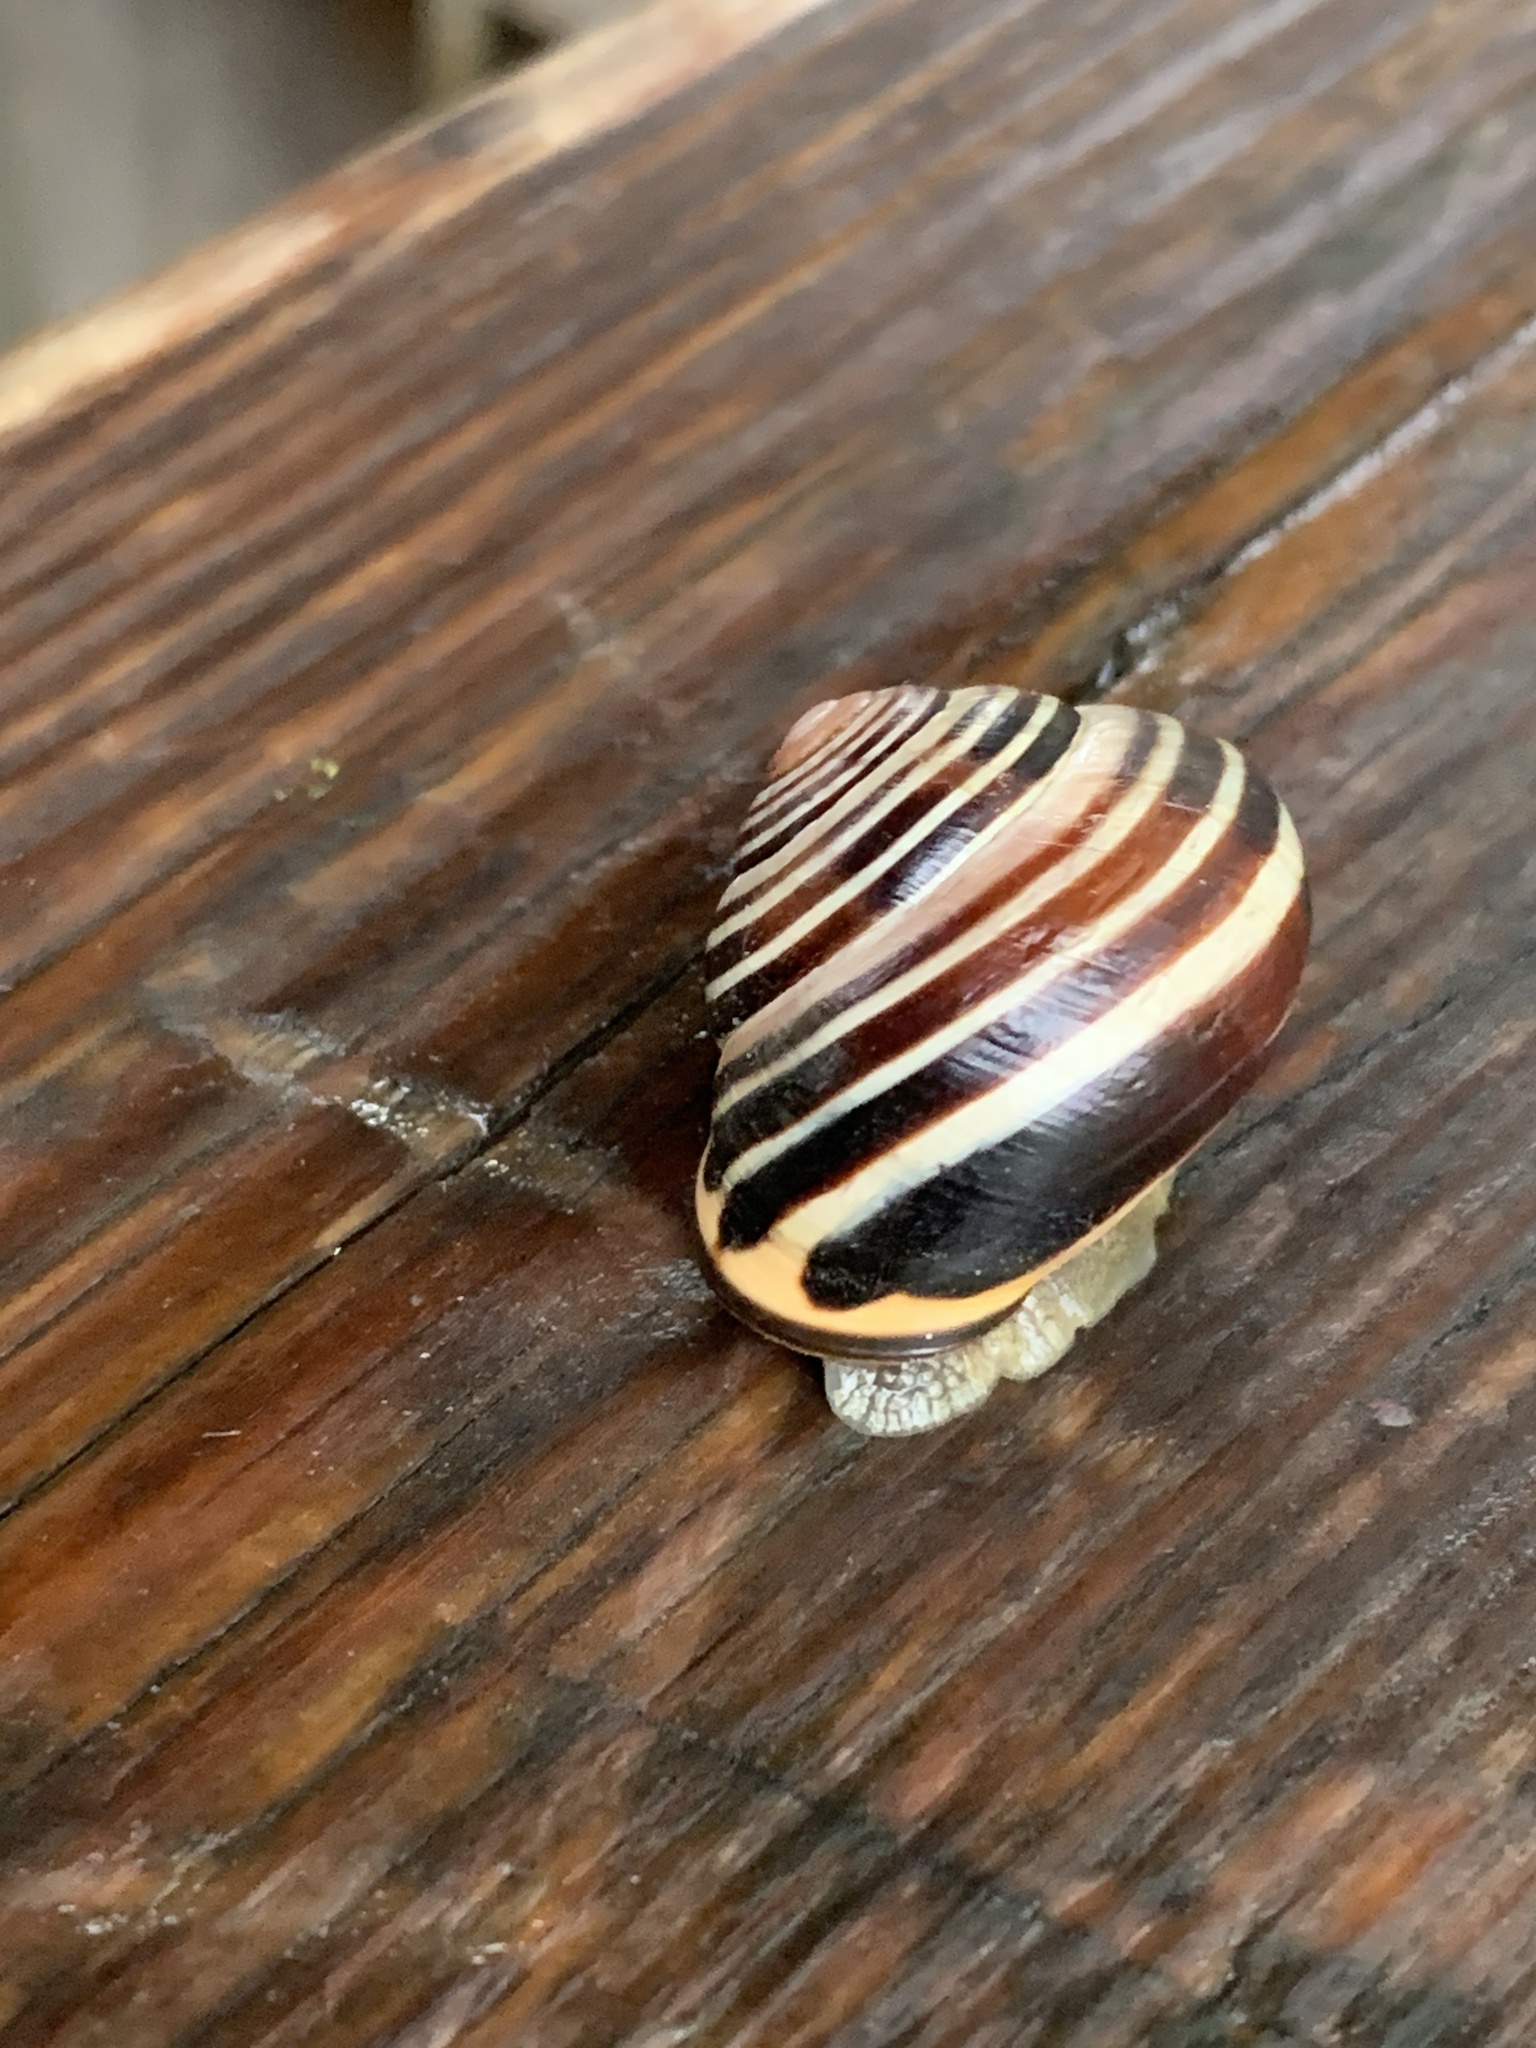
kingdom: Animalia
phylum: Mollusca
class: Gastropoda
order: Stylommatophora
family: Helicidae
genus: Cepaea
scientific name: Cepaea nemoralis
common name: Grovesnail
